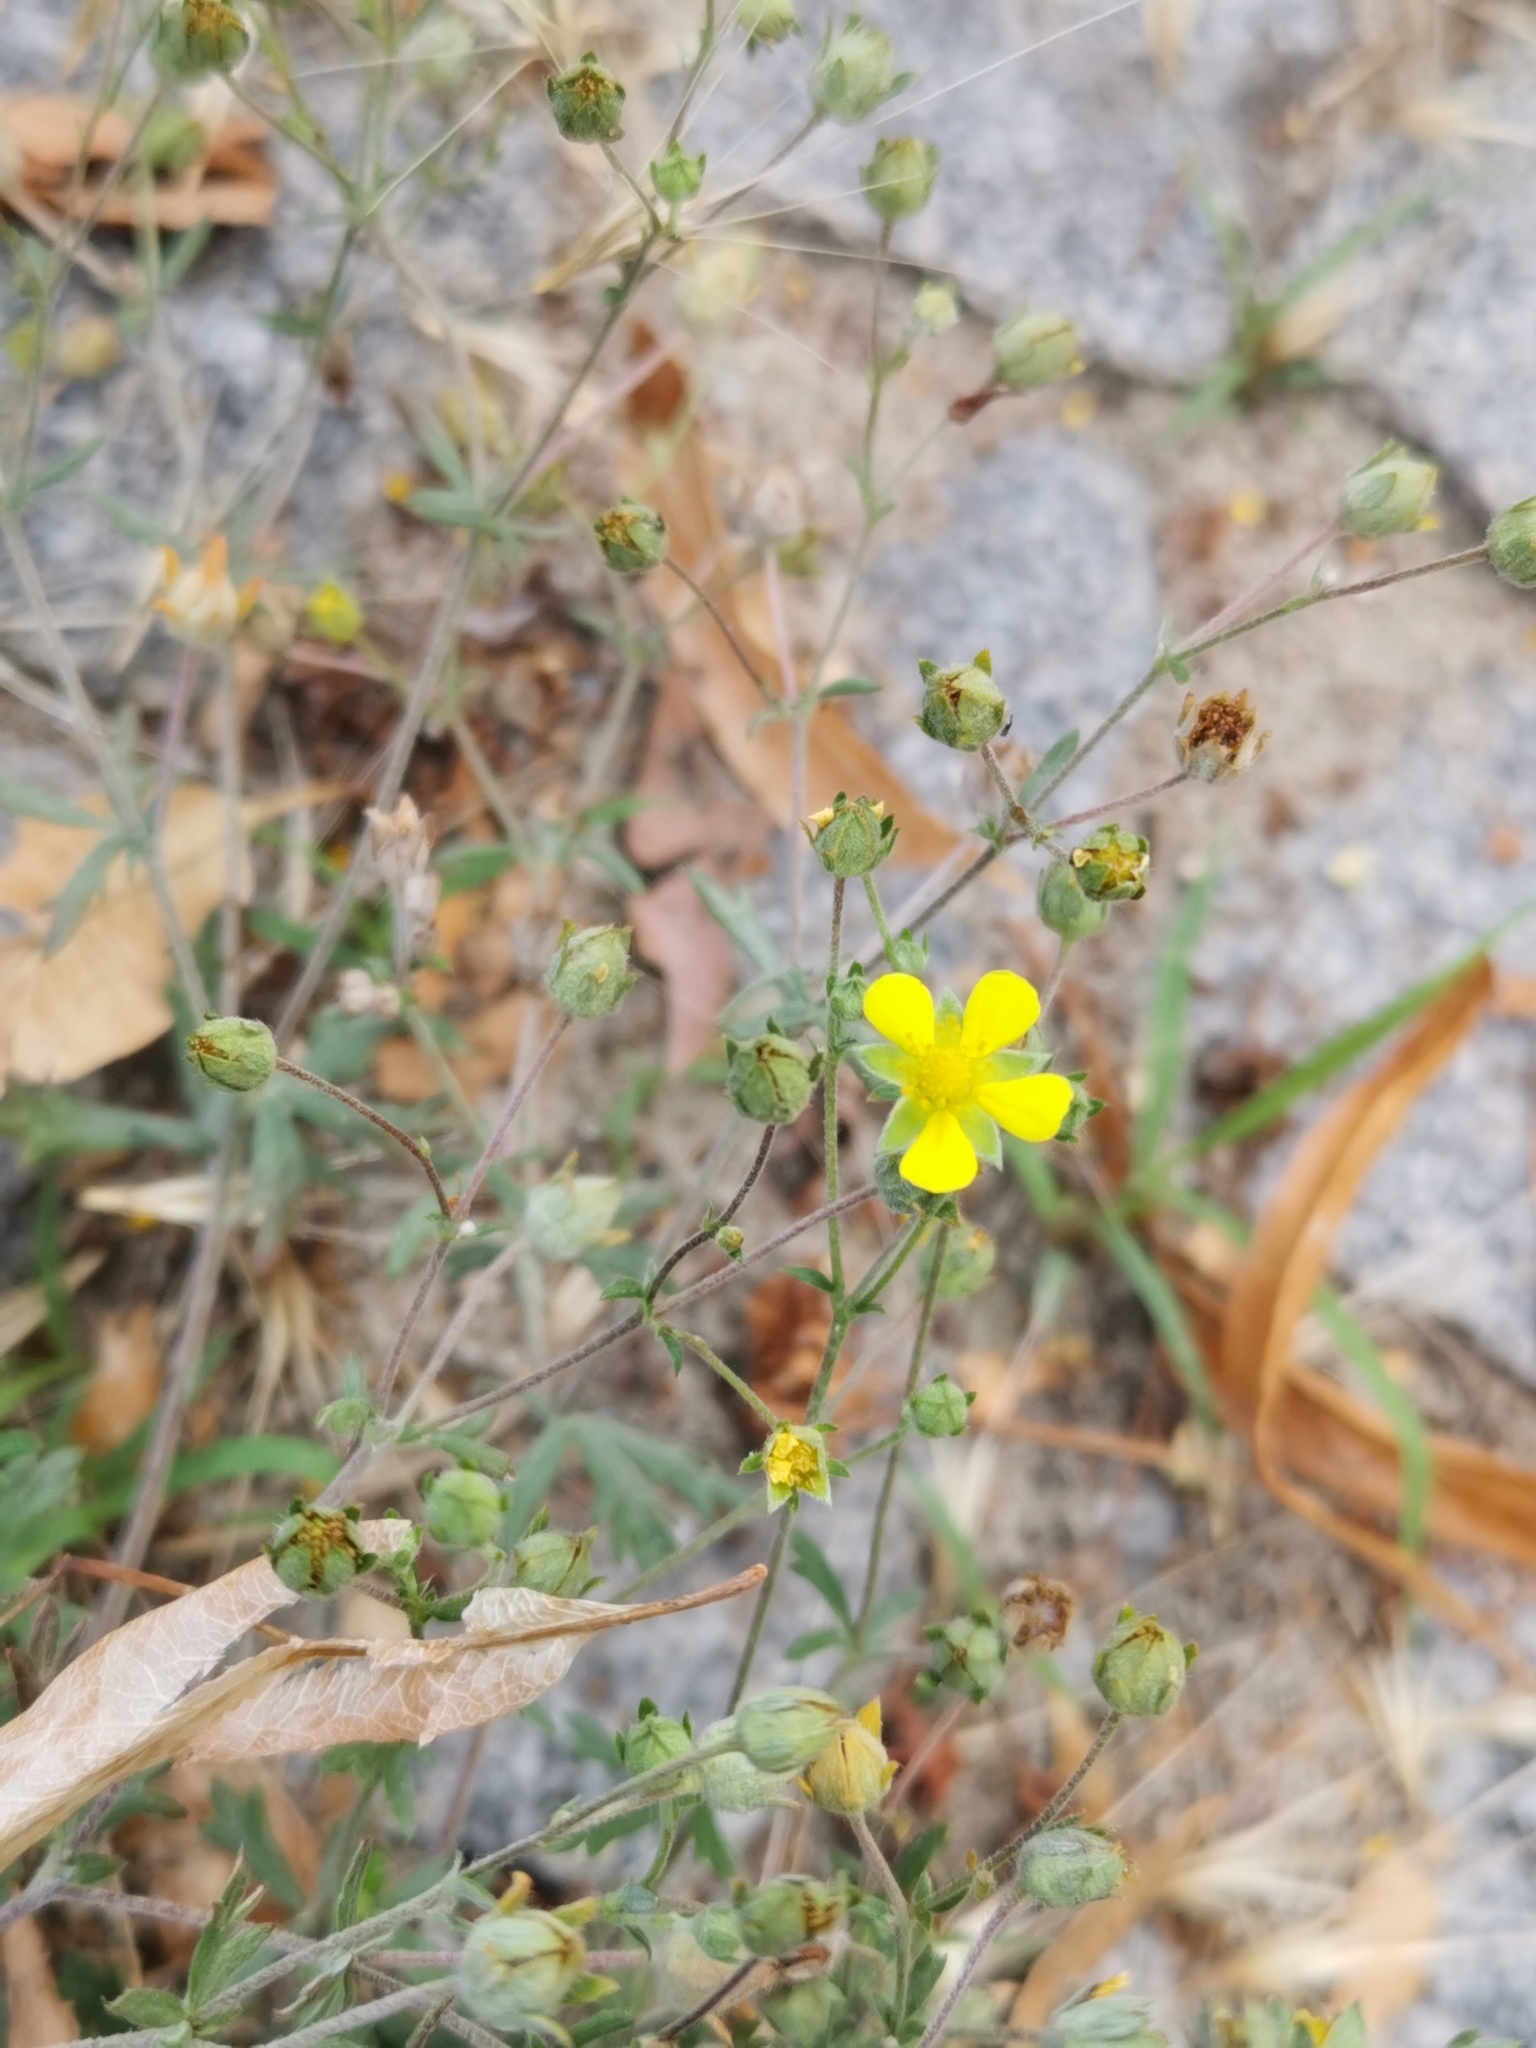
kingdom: Plantae
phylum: Tracheophyta
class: Magnoliopsida
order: Rosales
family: Rosaceae
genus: Potentilla
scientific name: Potentilla argentea
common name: Hoary cinquefoil
